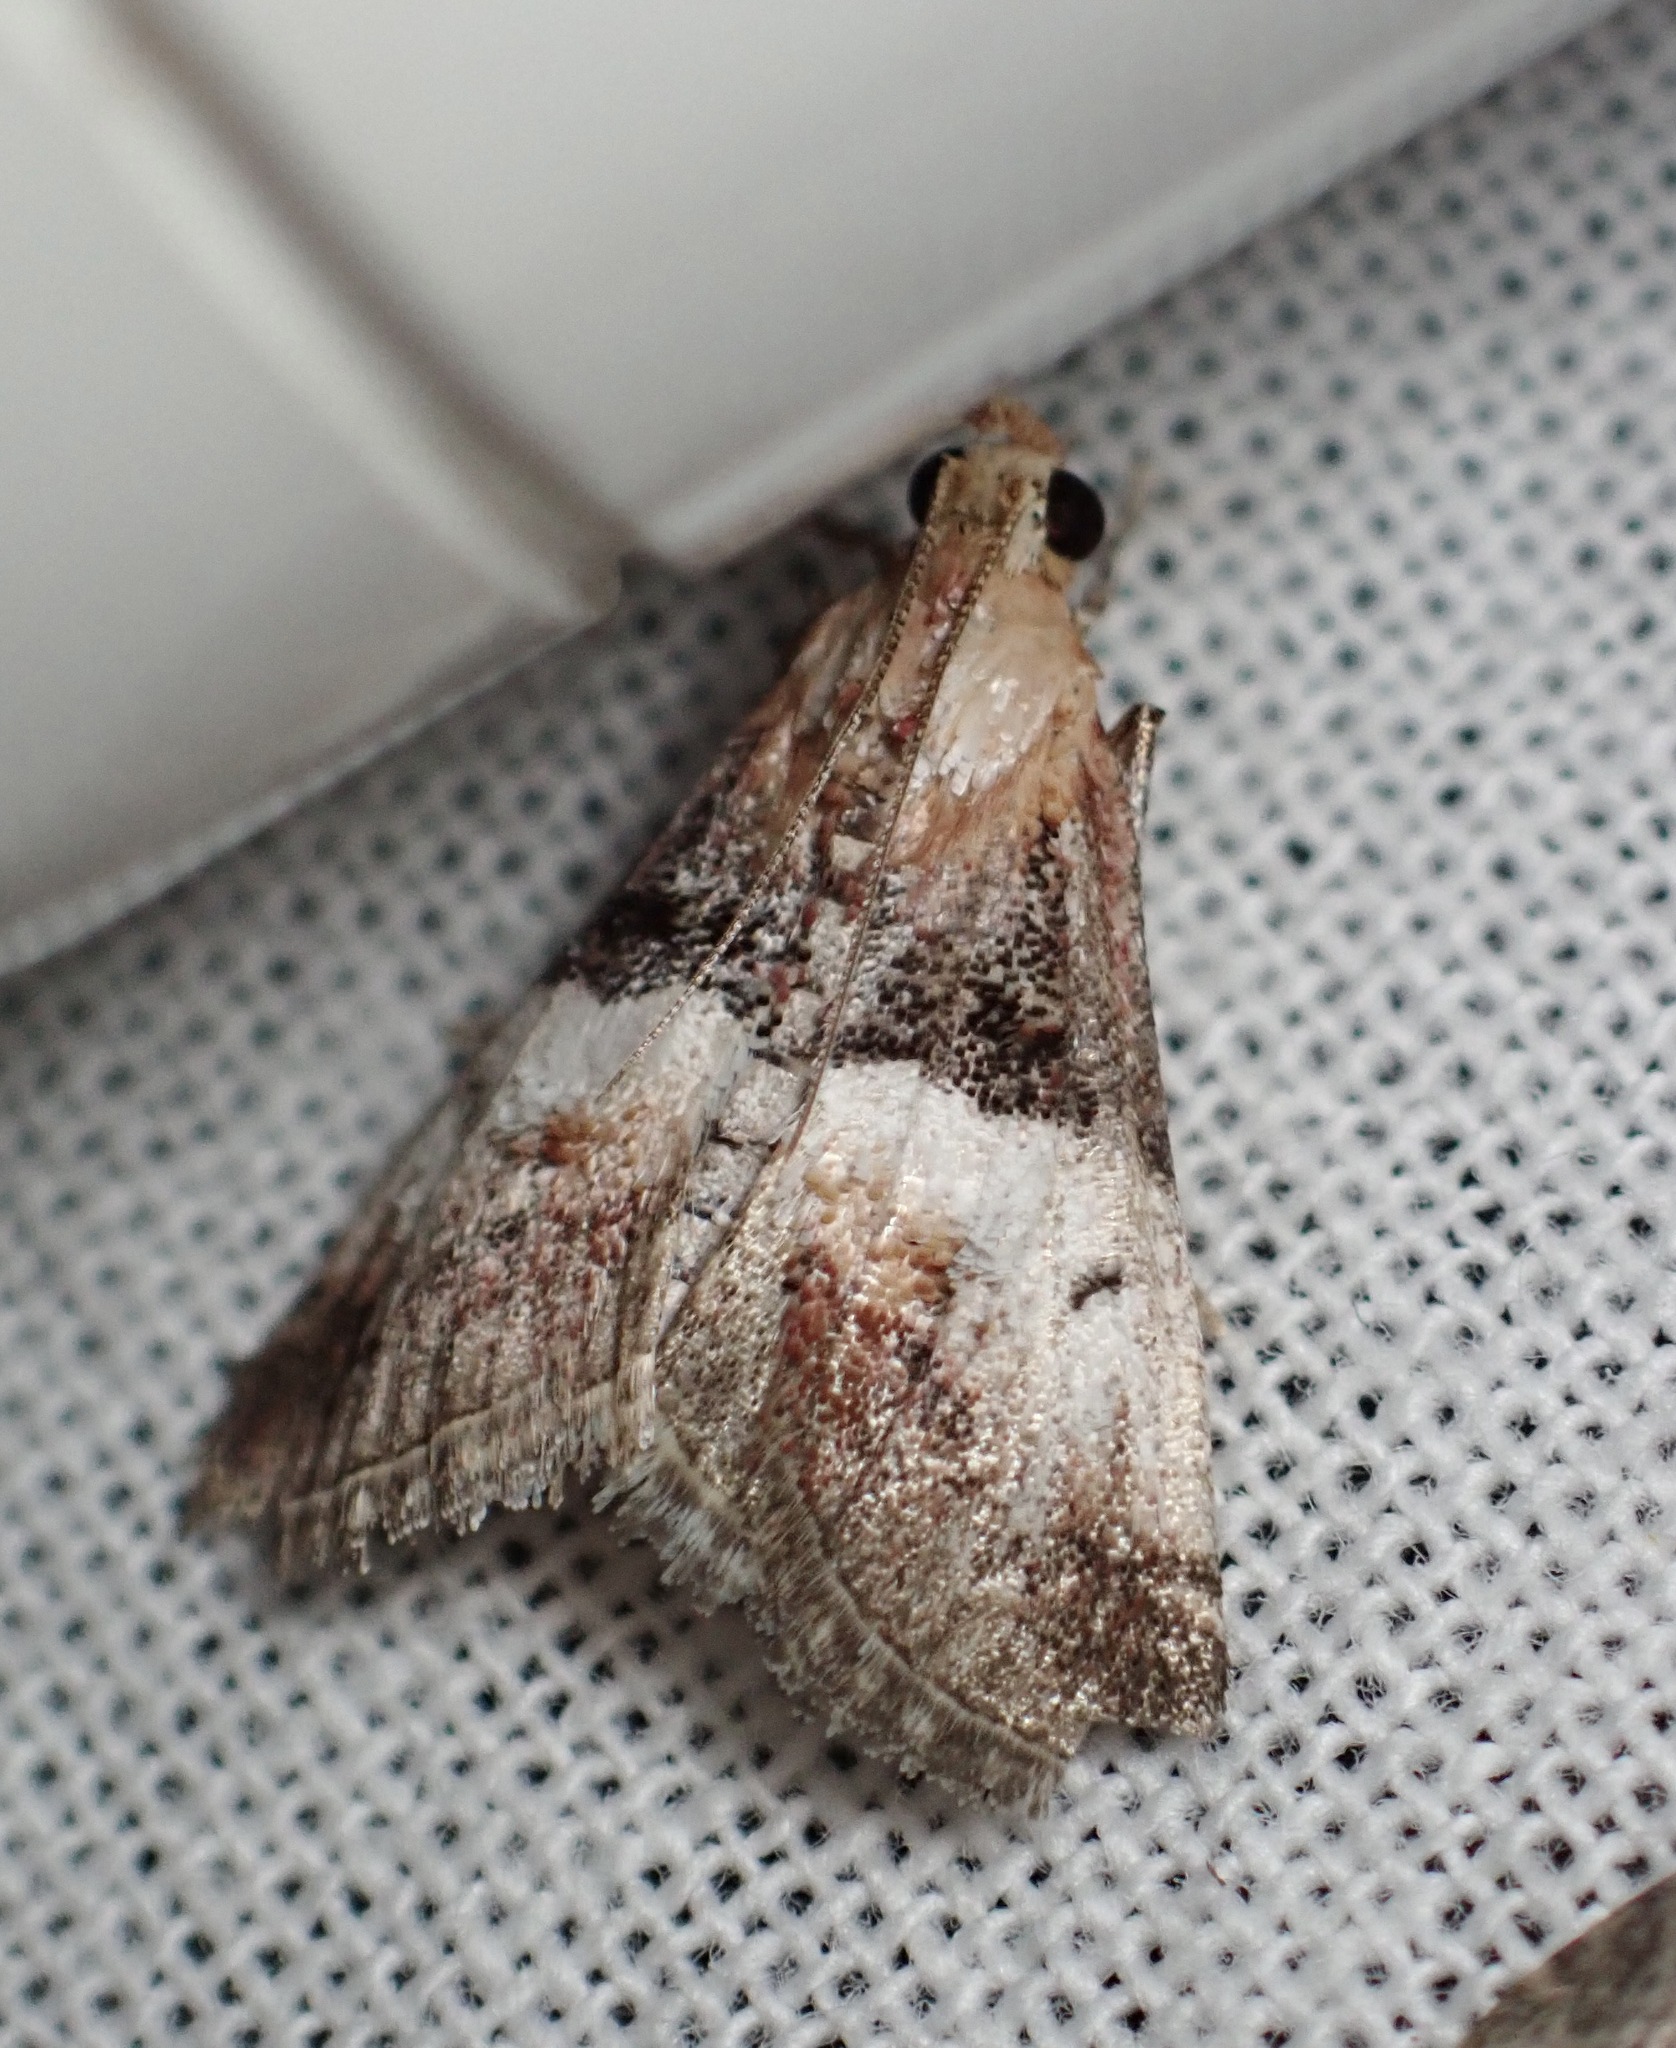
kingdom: Animalia
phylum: Arthropoda
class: Insecta
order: Lepidoptera
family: Pyralidae
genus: Toripalpus
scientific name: Toripalpus trabalis
